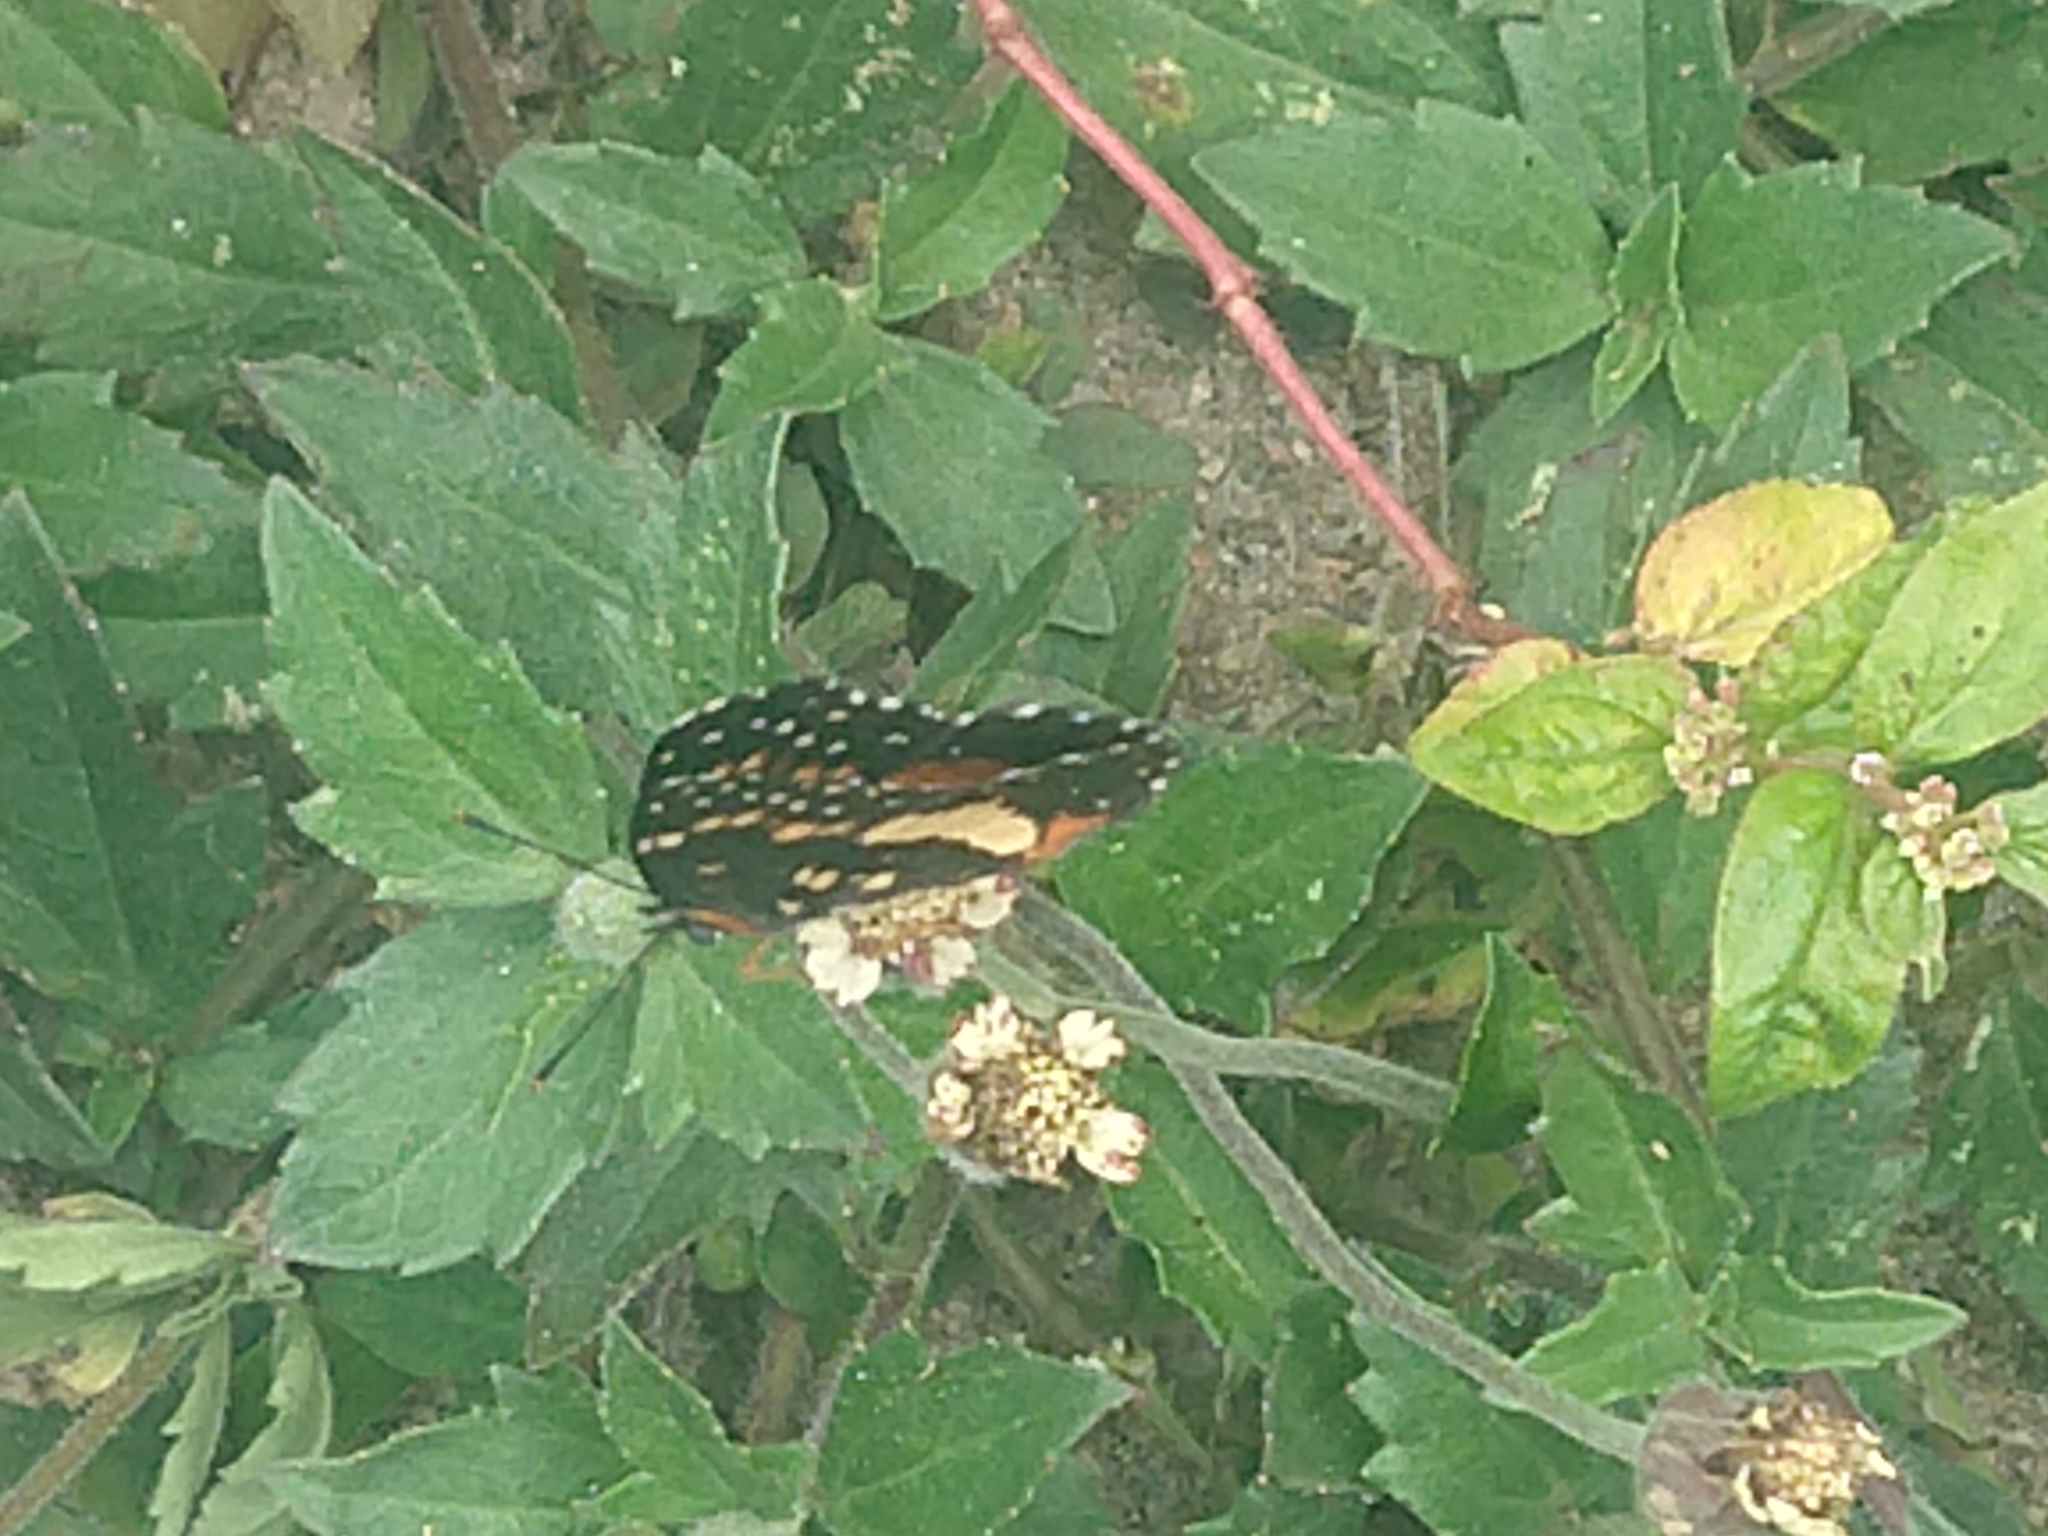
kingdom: Animalia
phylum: Arthropoda
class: Insecta
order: Lepidoptera
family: Nymphalidae
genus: Chlosyne
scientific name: Chlosyne lacinia
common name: Bordered patch
